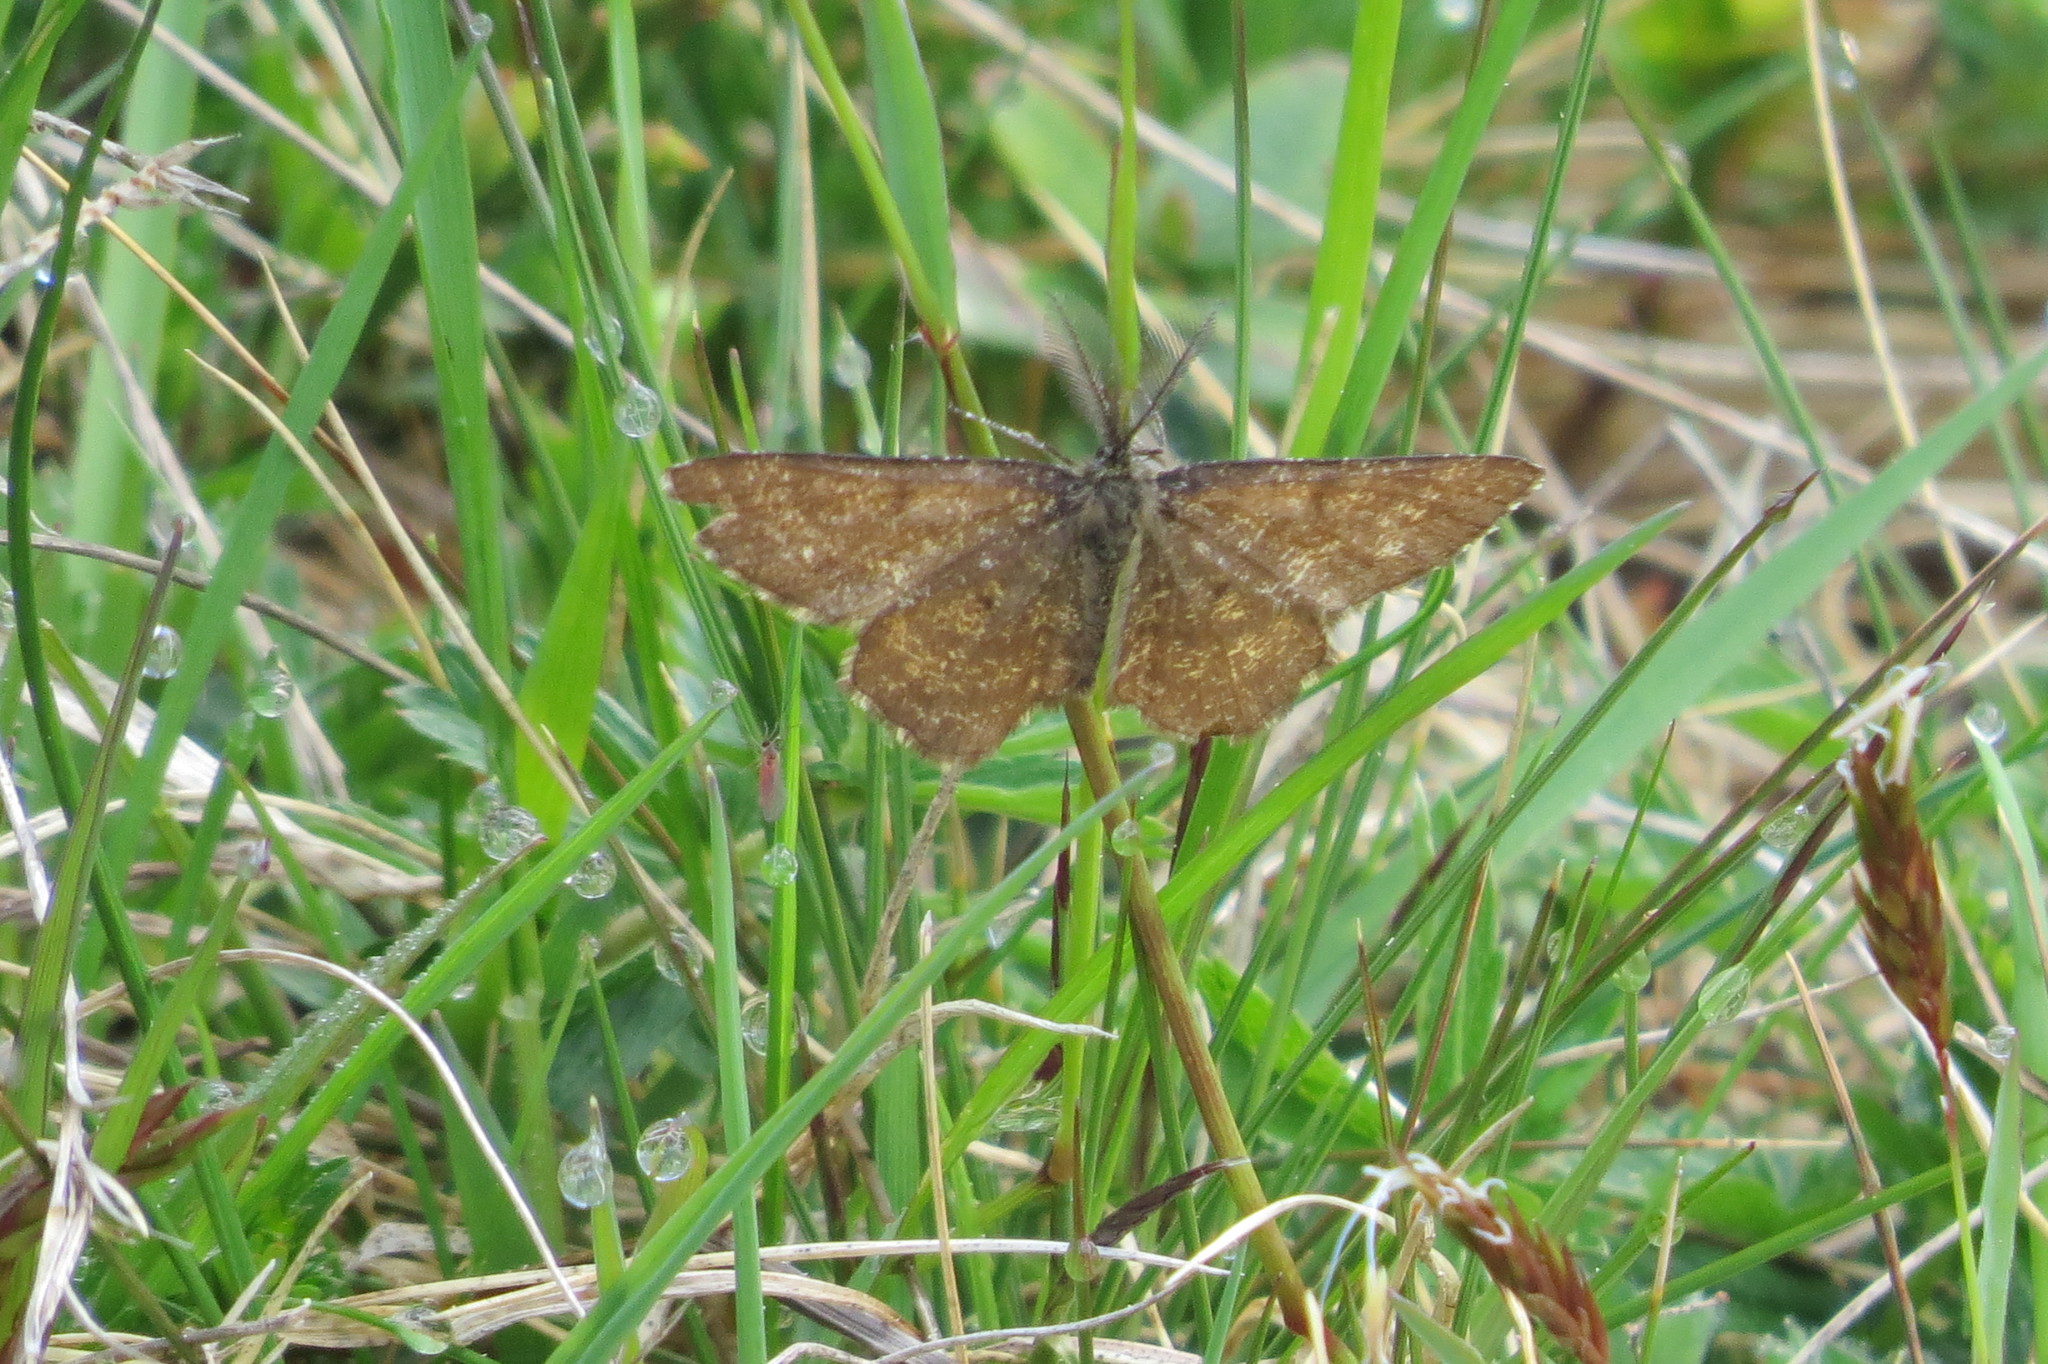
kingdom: Animalia
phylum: Arthropoda
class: Insecta
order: Lepidoptera
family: Geometridae
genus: Ematurga
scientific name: Ematurga atomaria
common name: Common heath
